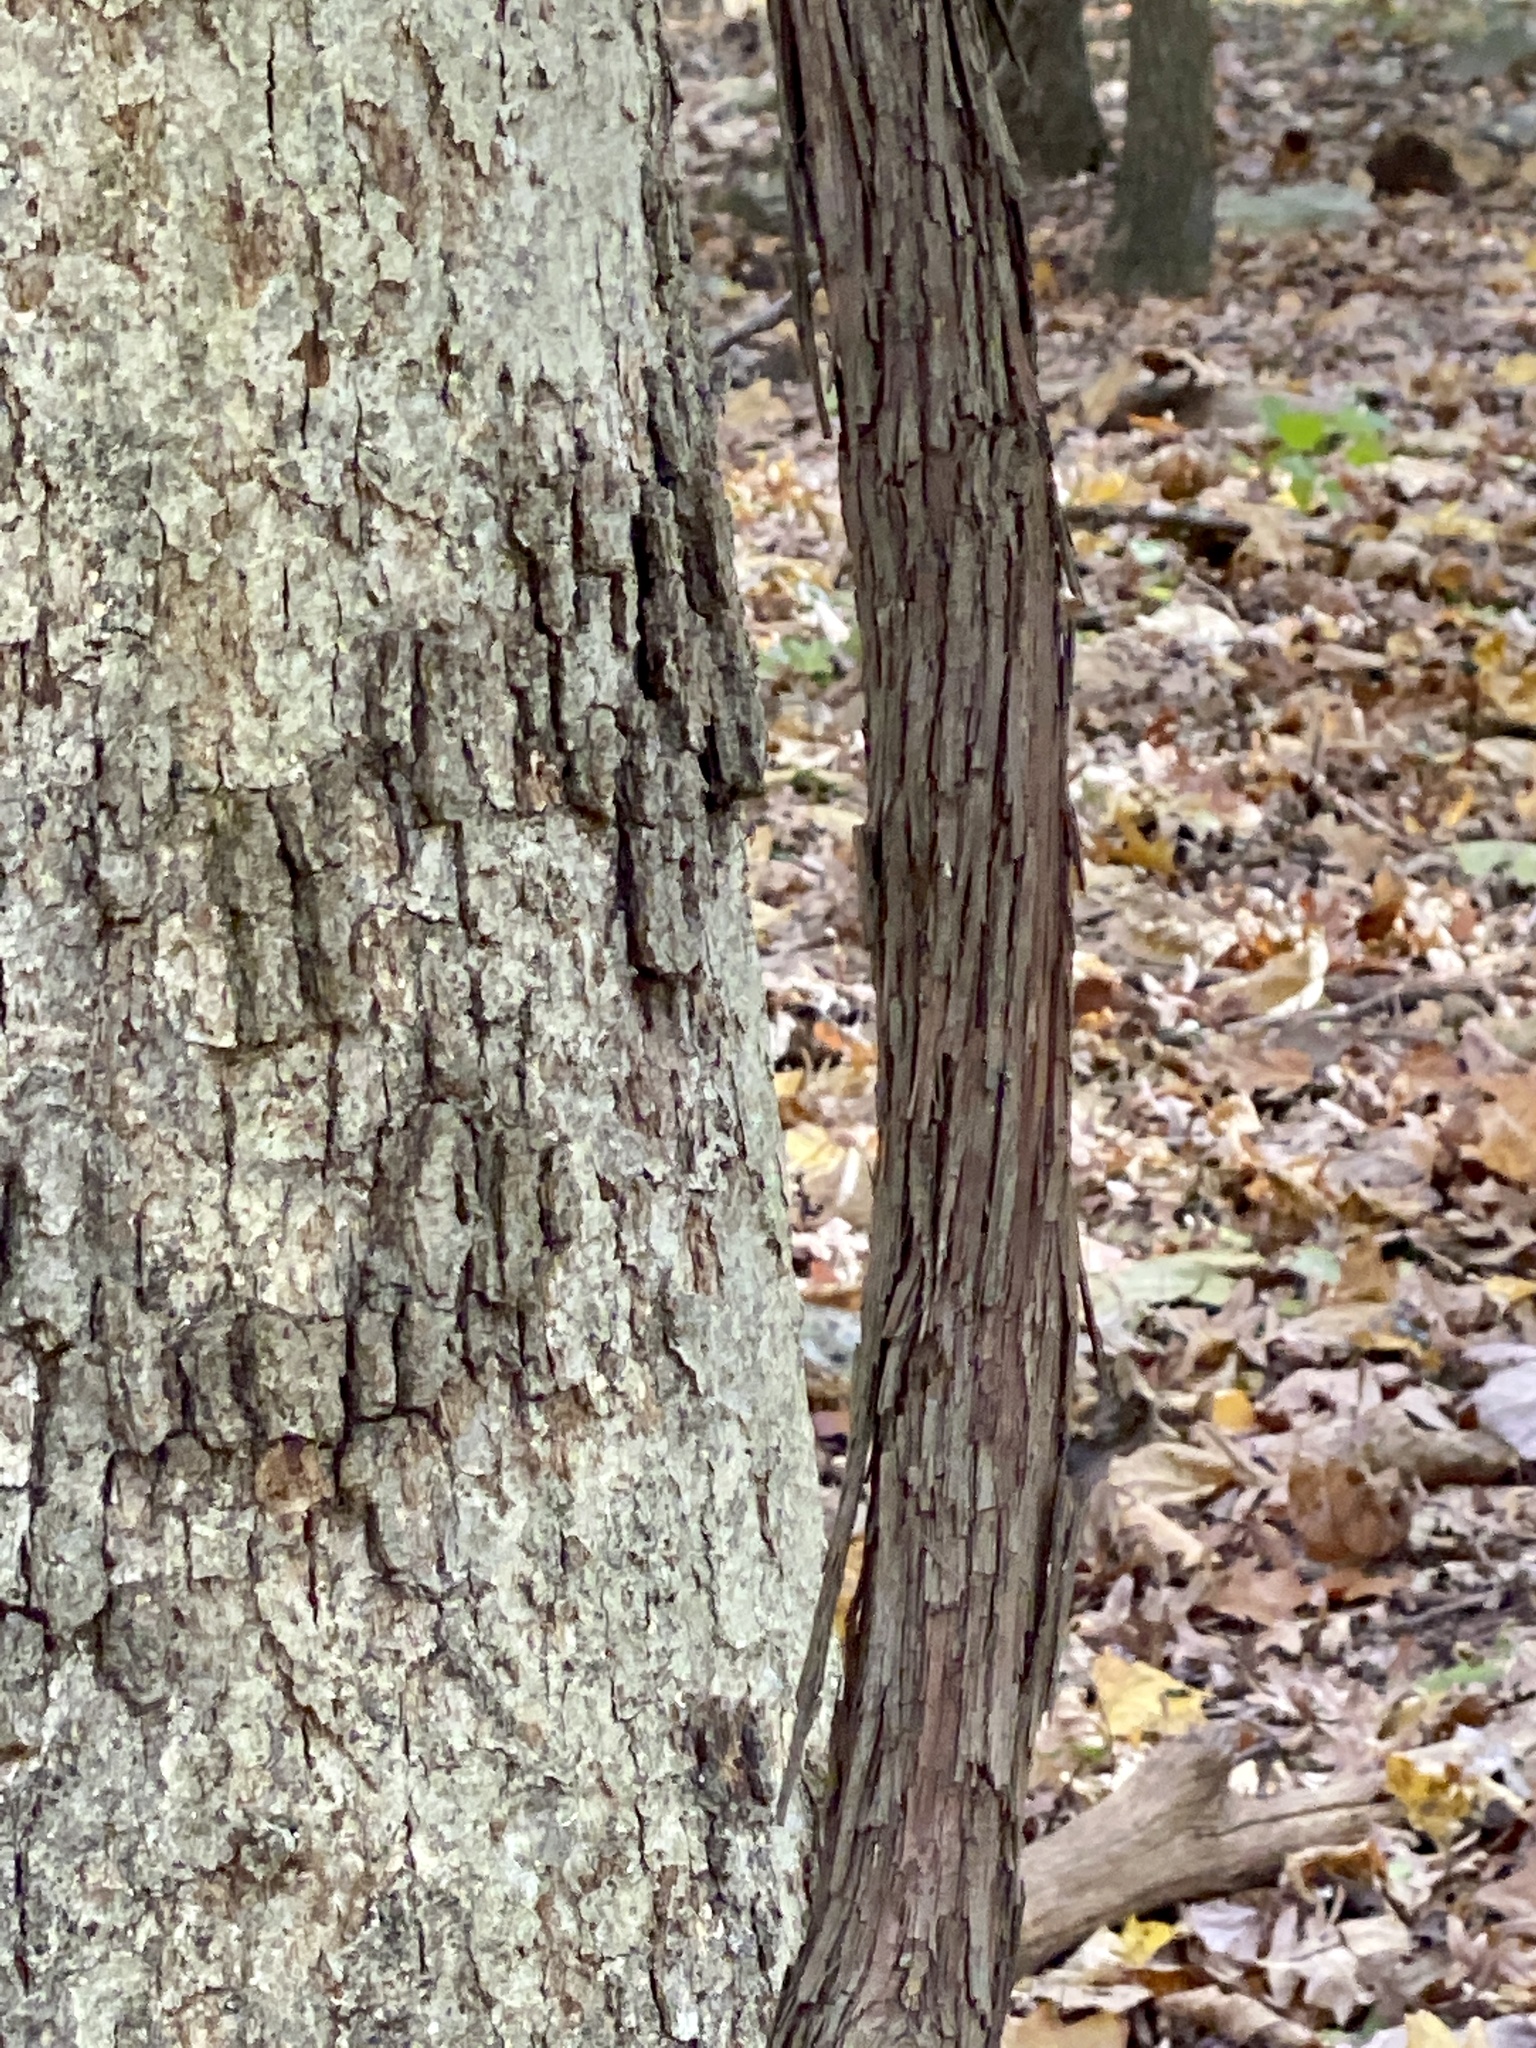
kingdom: Plantae
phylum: Tracheophyta
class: Magnoliopsida
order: Vitales
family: Vitaceae
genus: Vitis
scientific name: Vitis
